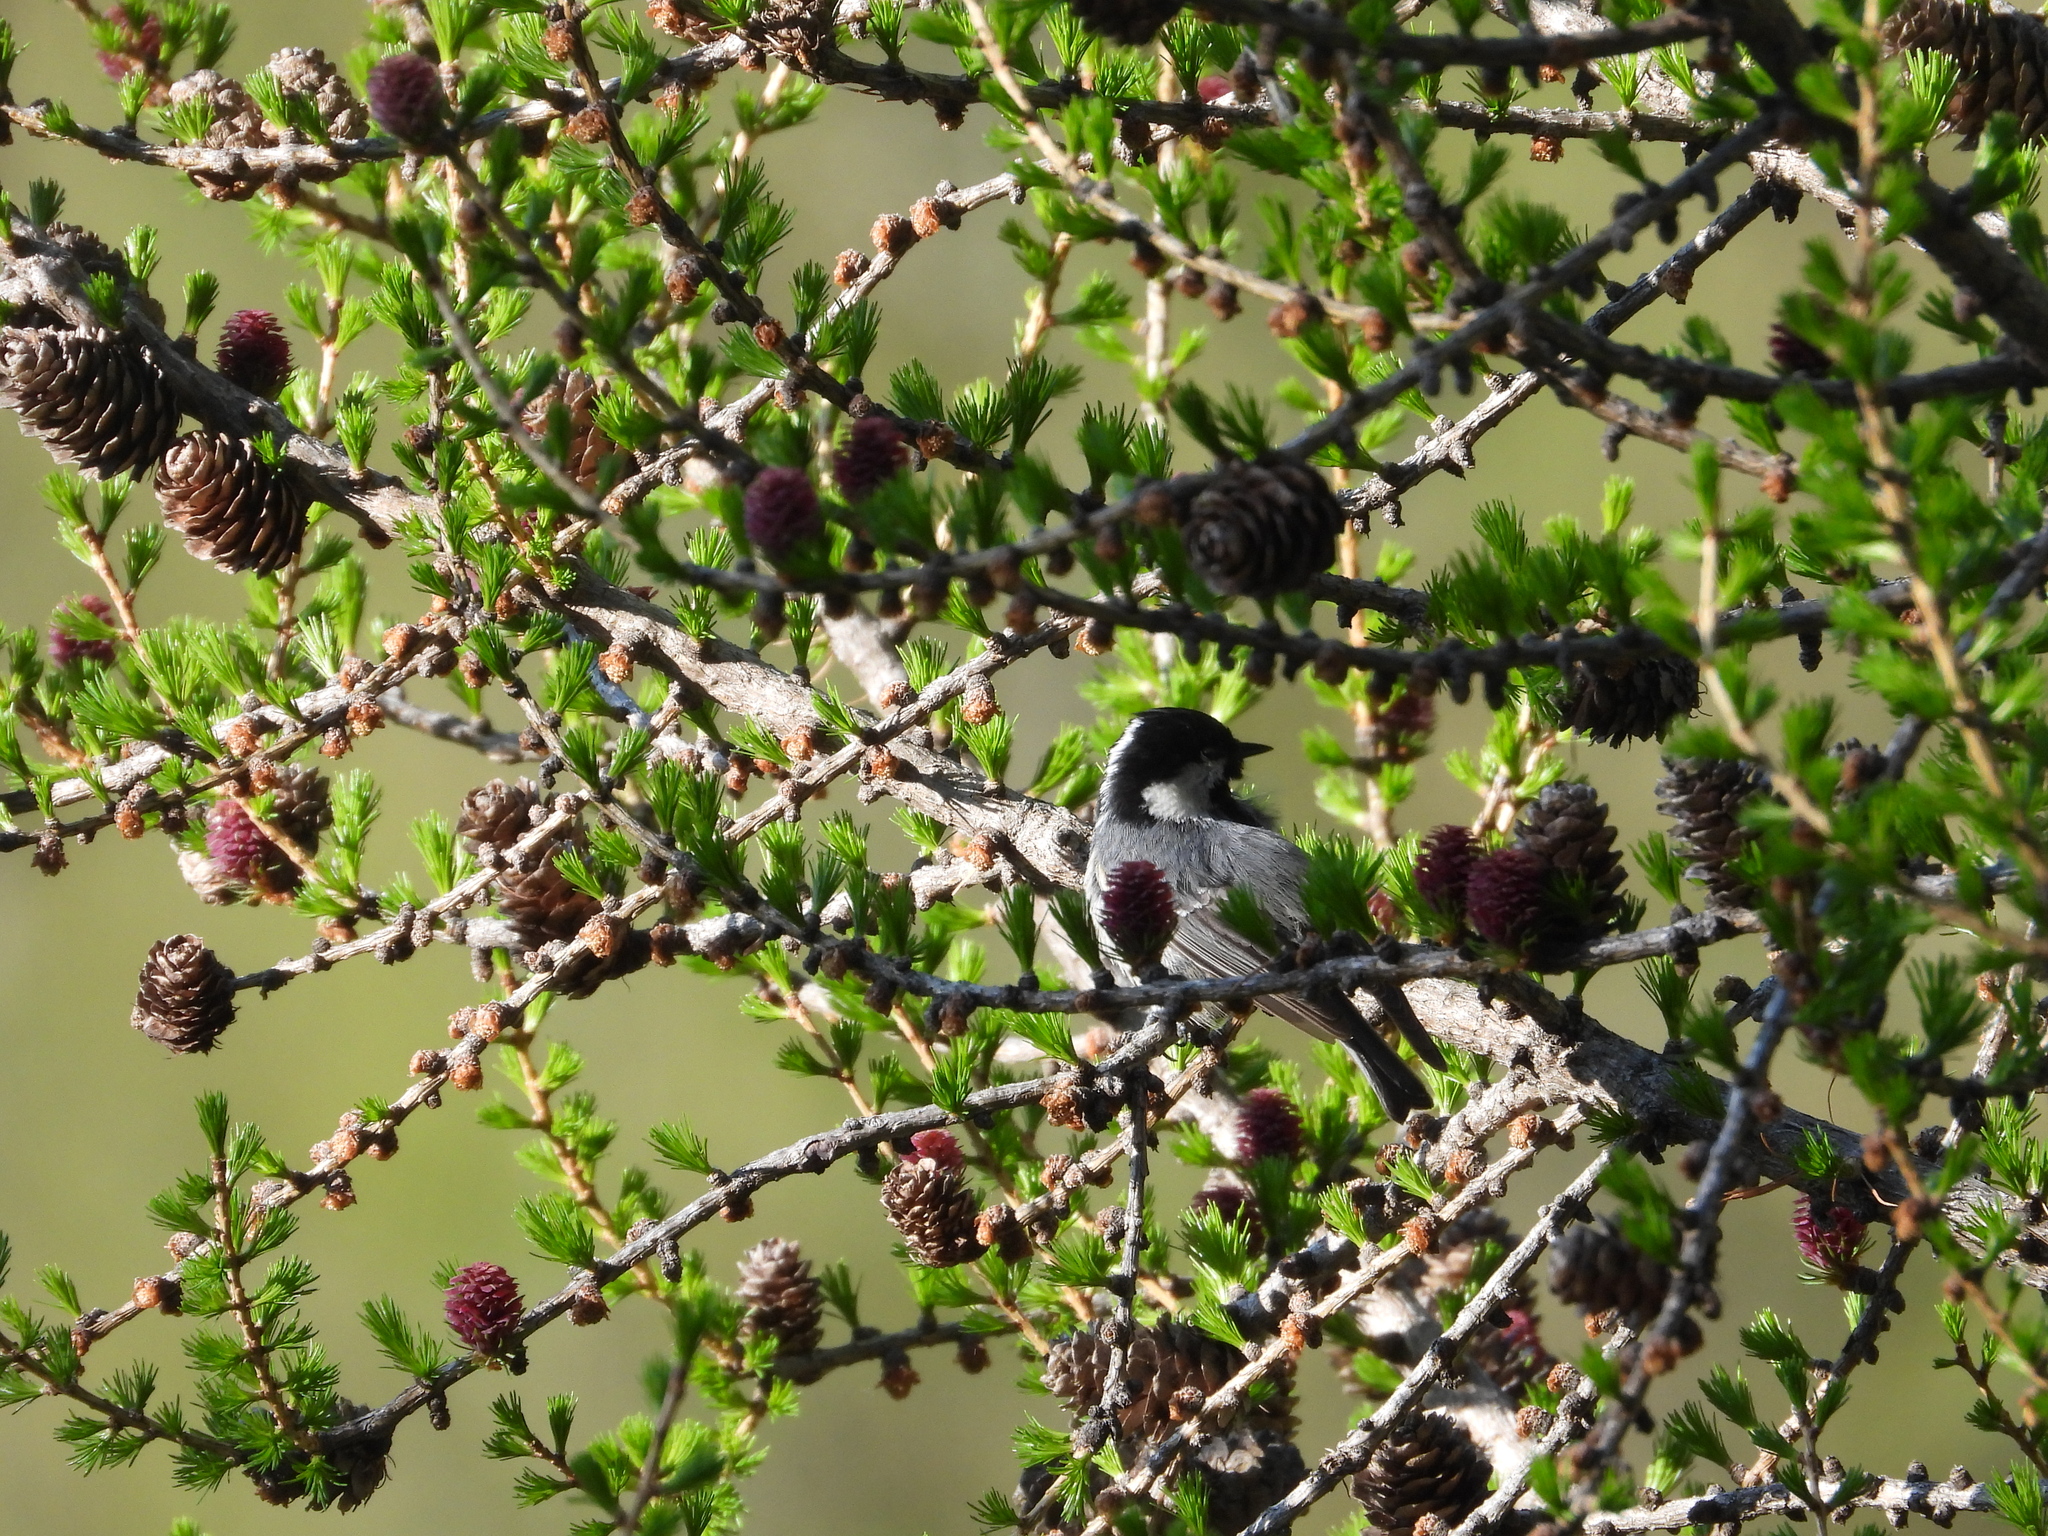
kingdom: Animalia
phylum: Chordata
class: Aves
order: Passeriformes
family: Paridae
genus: Periparus
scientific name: Periparus ater
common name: Coal tit
